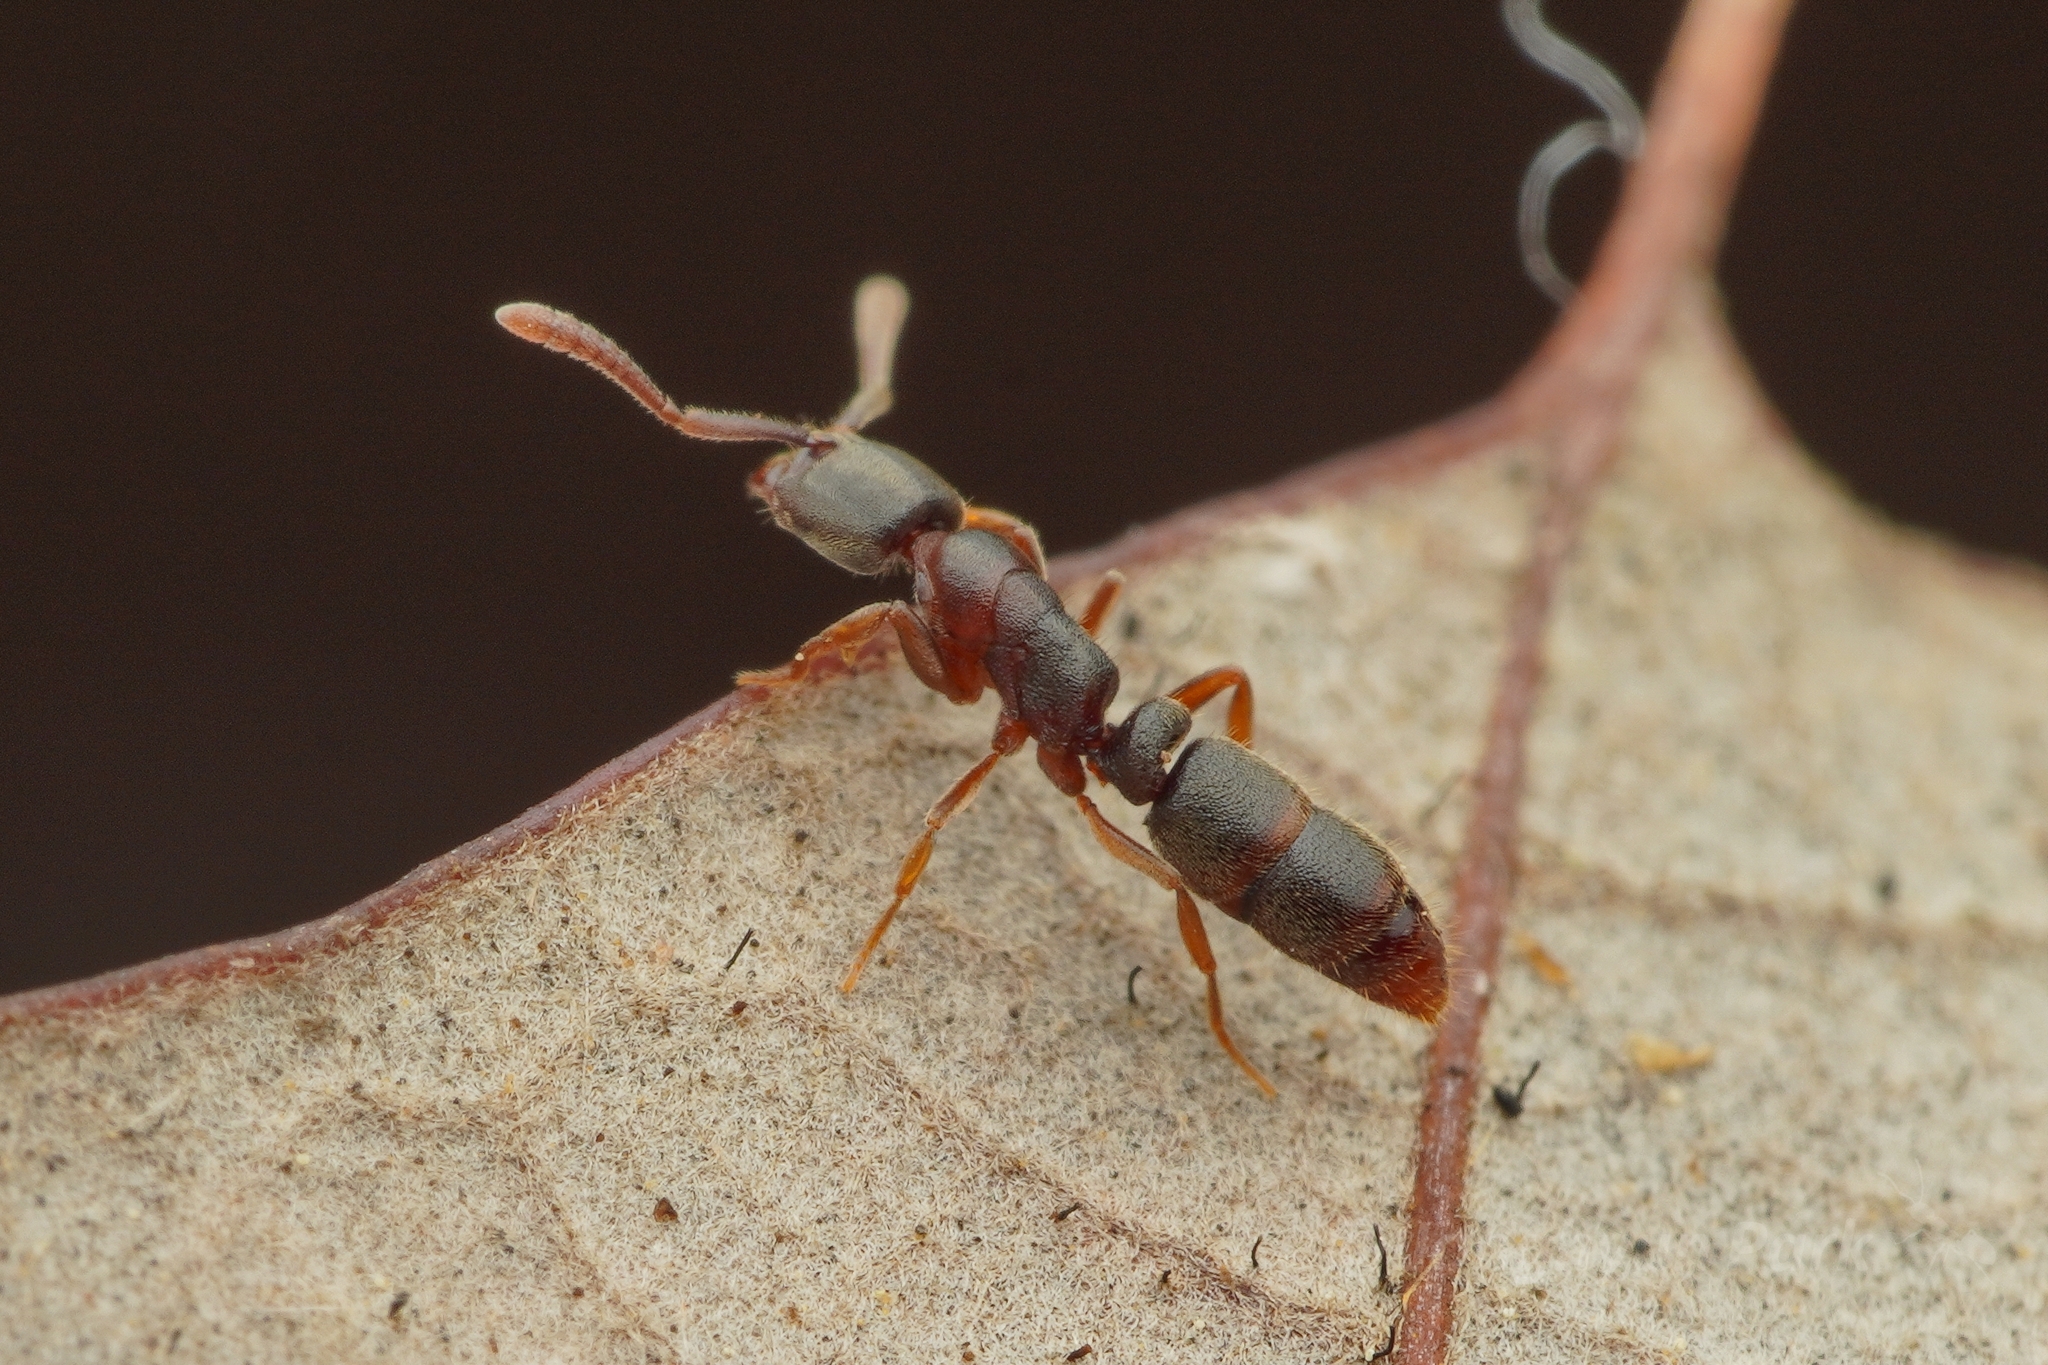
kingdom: Animalia
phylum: Arthropoda
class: Insecta
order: Hymenoptera
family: Formicidae
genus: Ponera
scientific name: Ponera scabra
